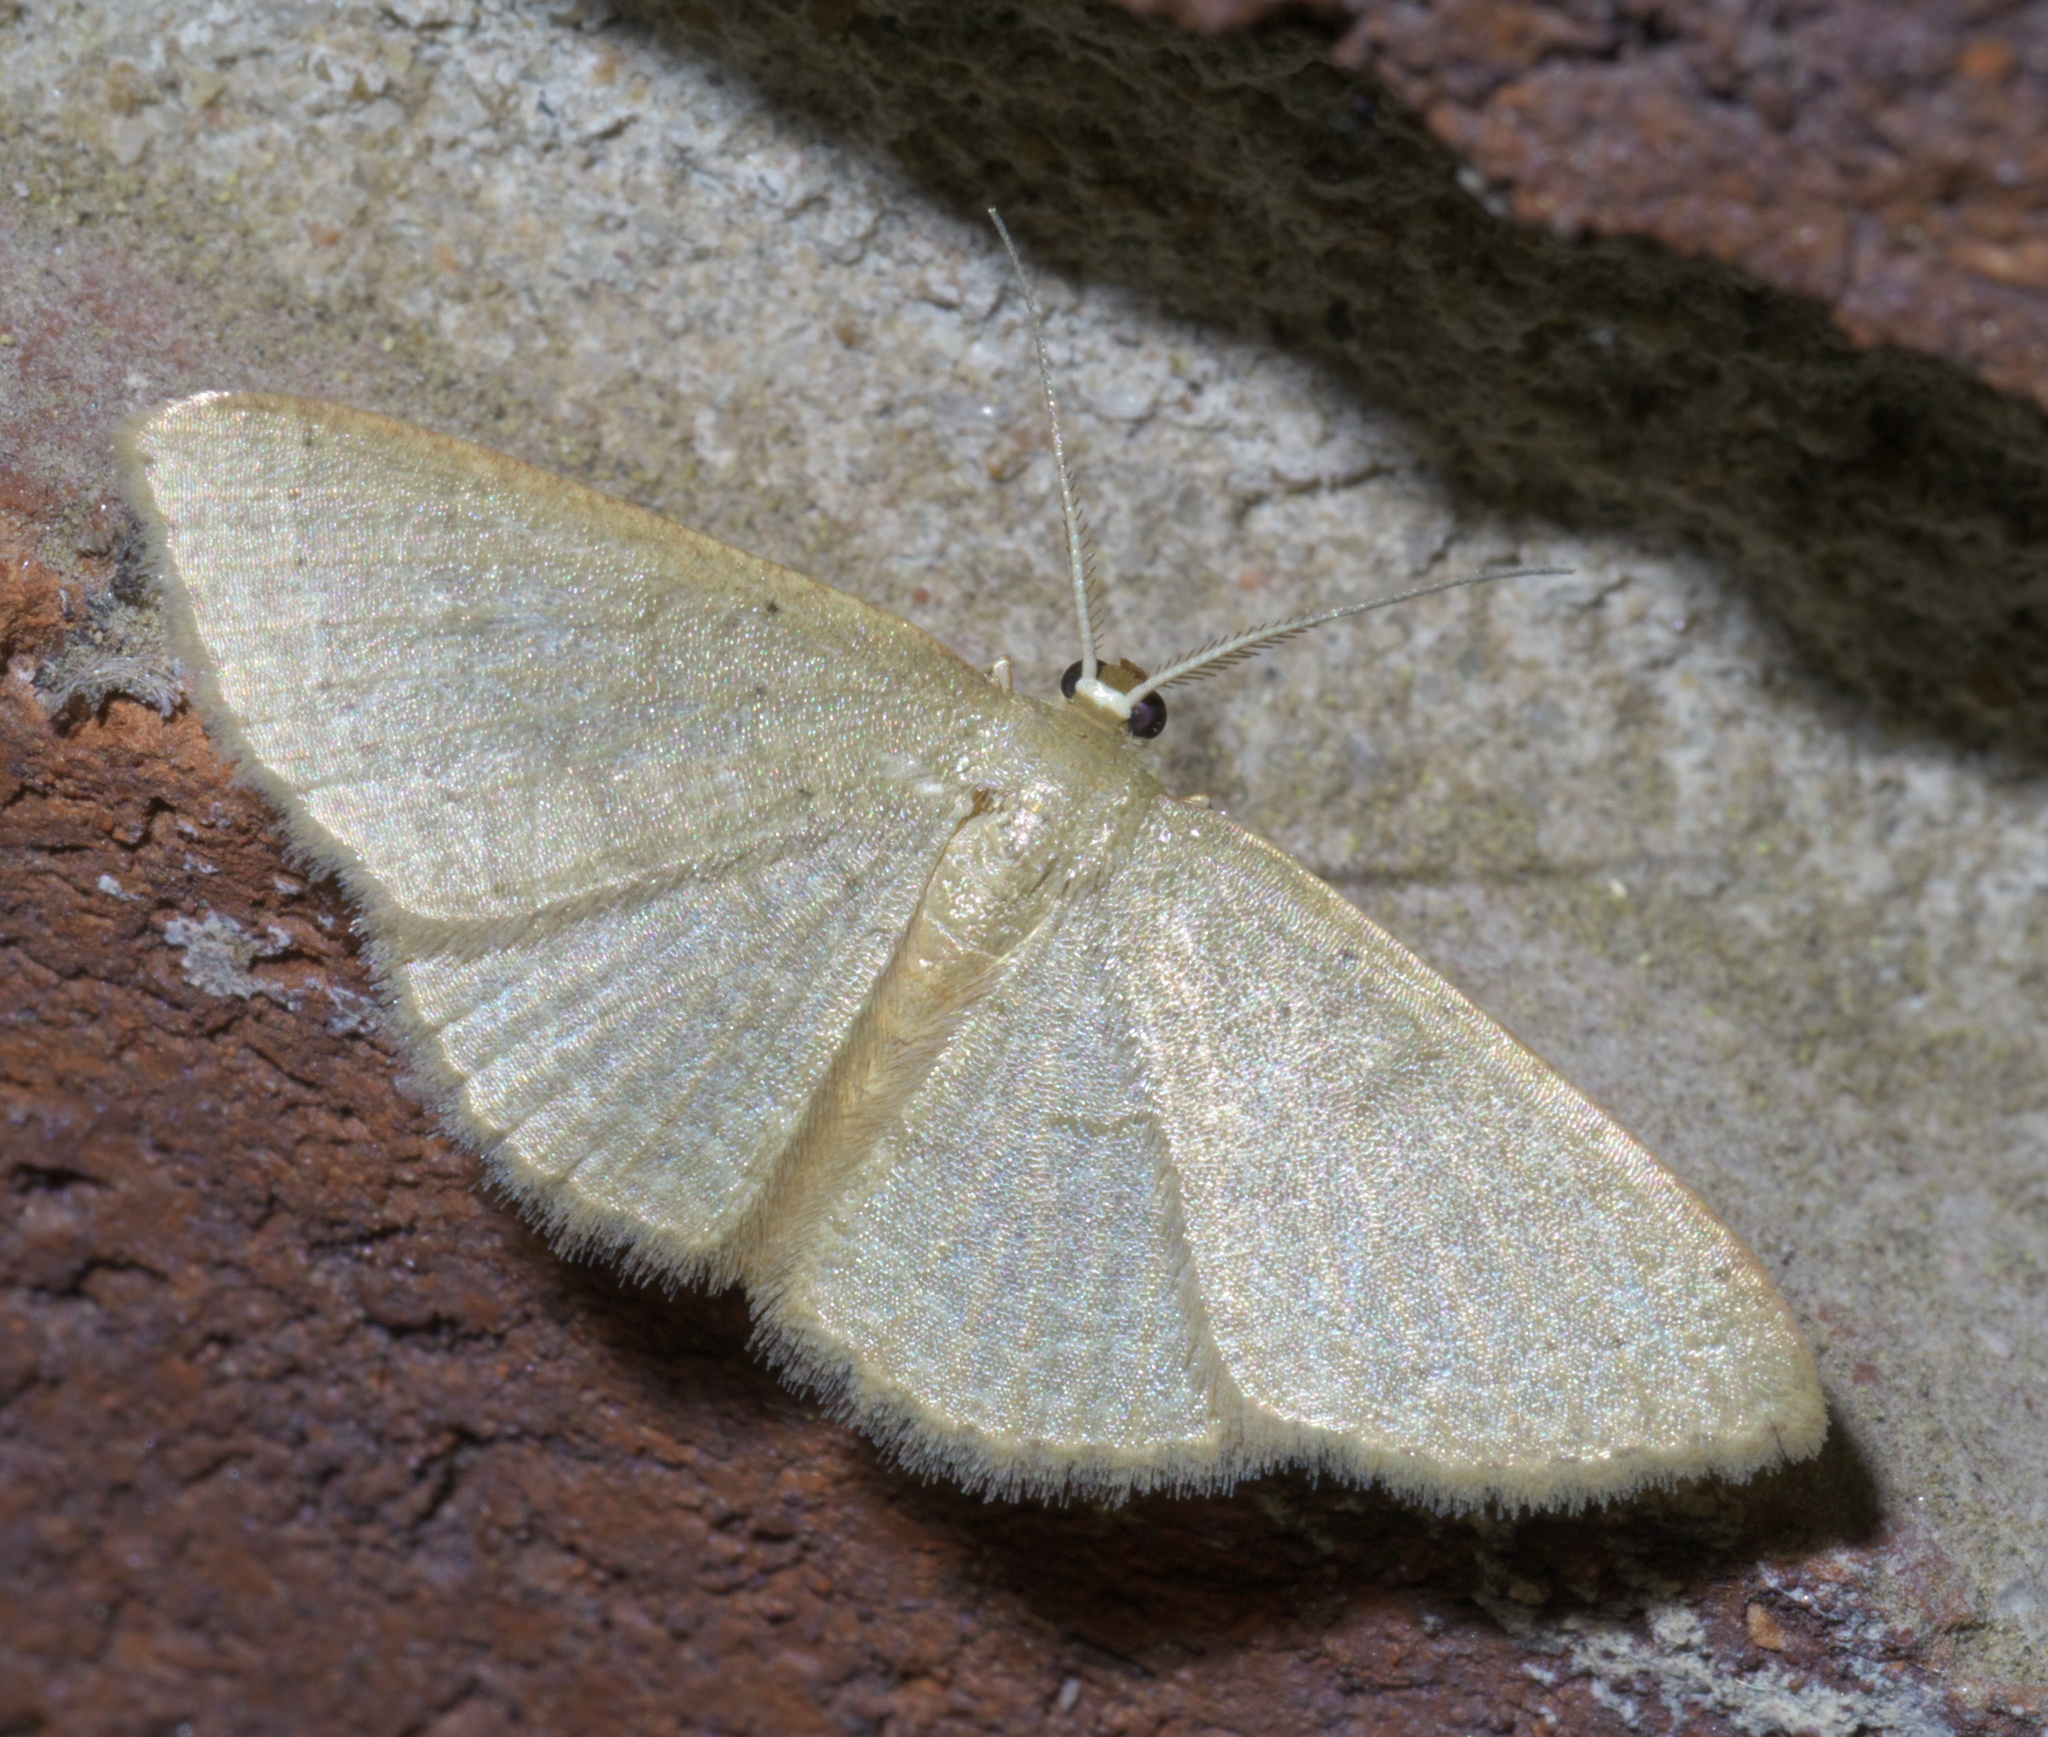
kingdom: Animalia
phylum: Arthropoda
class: Insecta
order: Lepidoptera
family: Geometridae
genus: Pleuroprucha
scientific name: Pleuroprucha insulsaria
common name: Common tan wave
